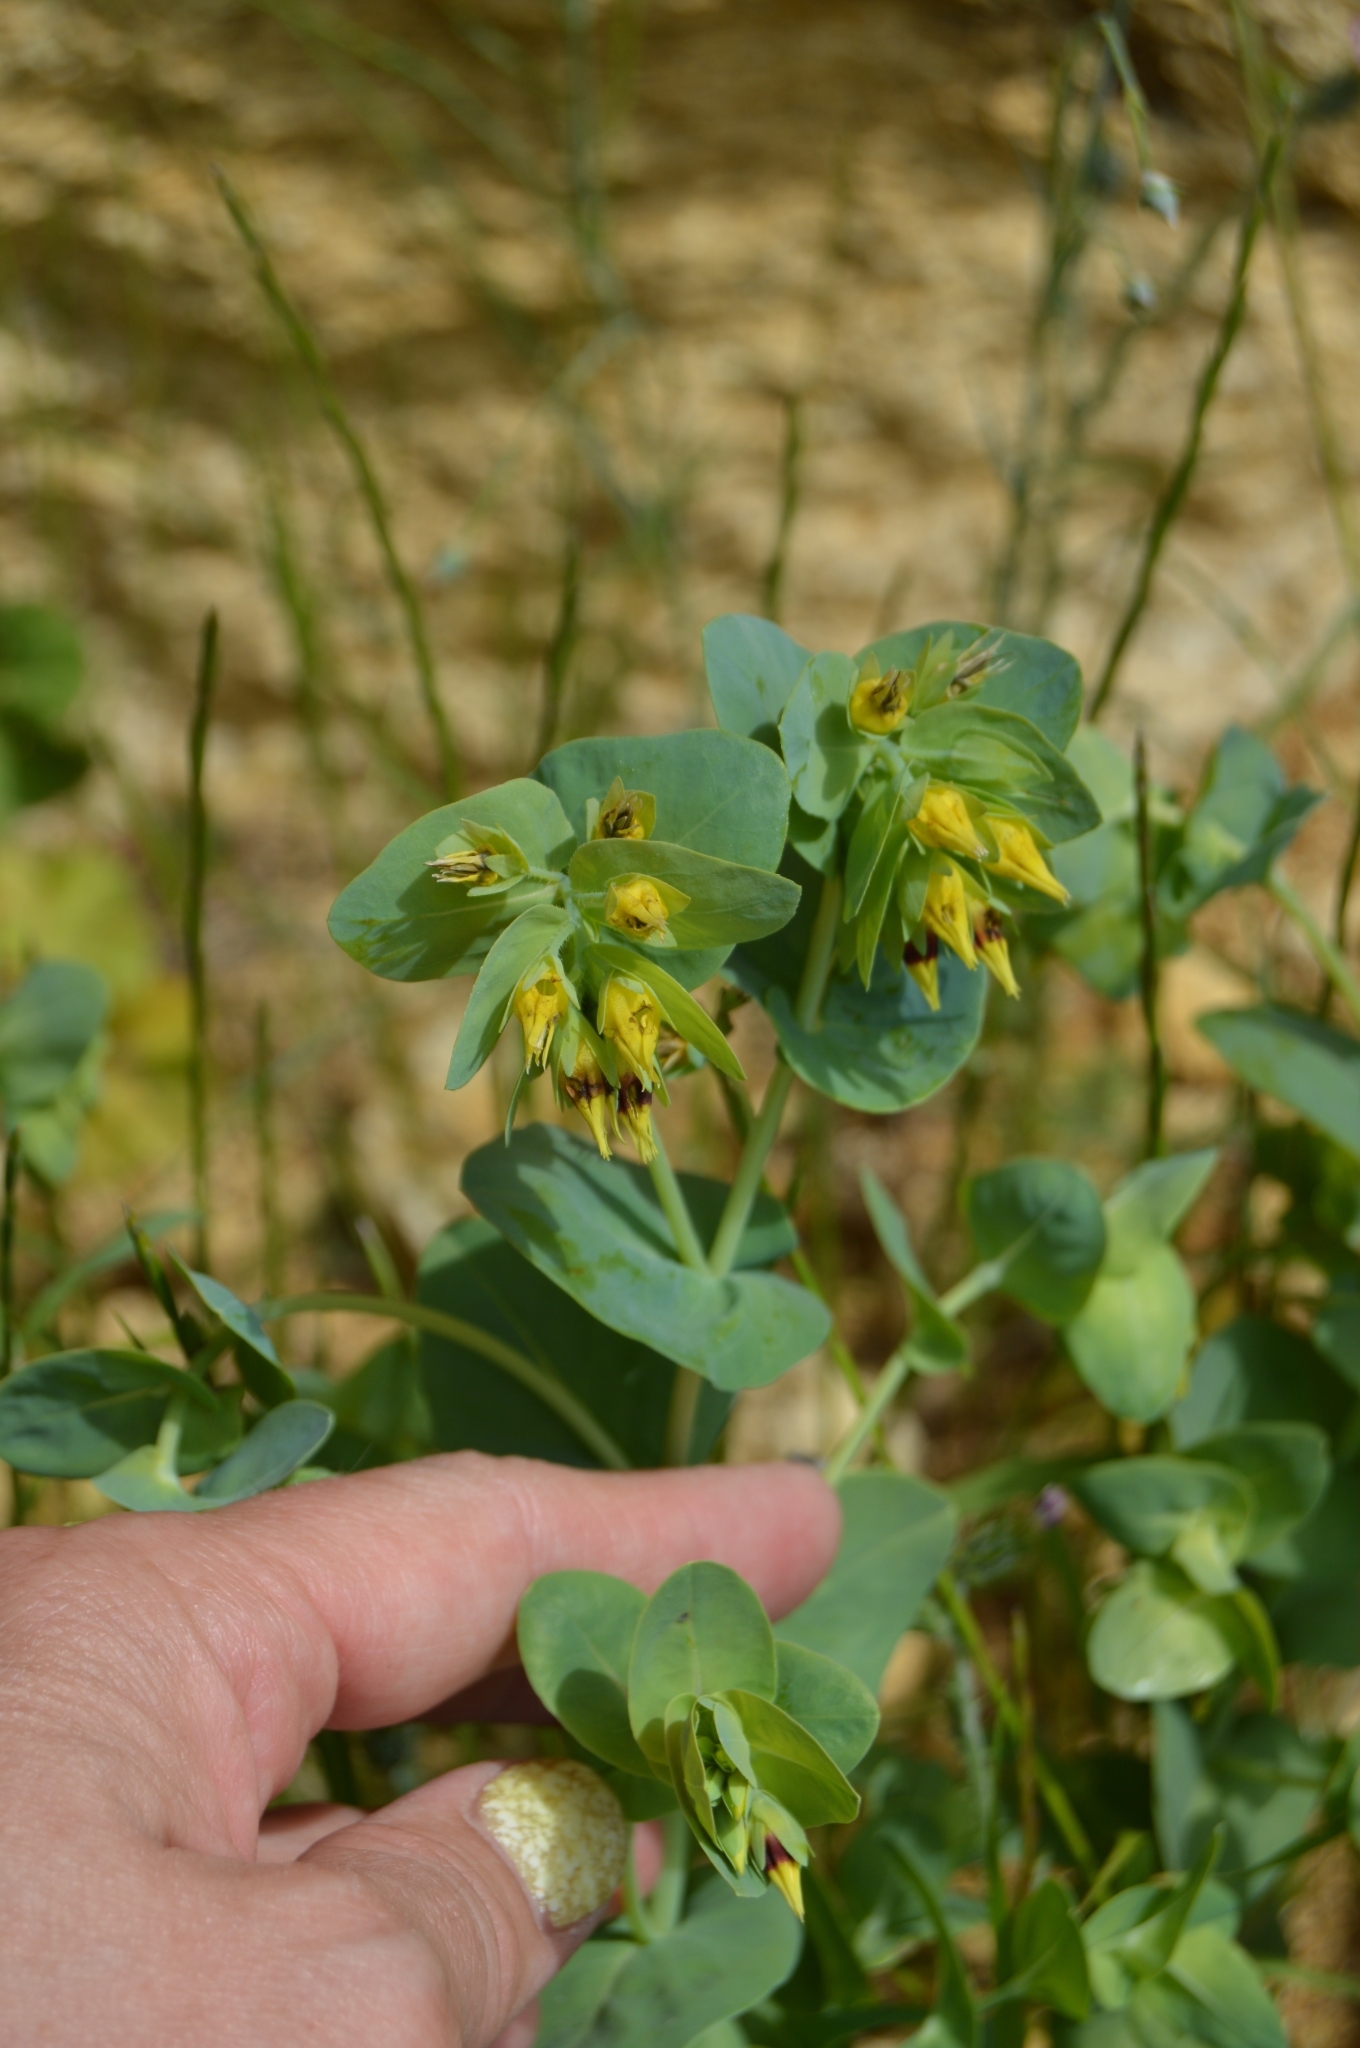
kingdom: Plantae
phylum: Tracheophyta
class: Magnoliopsida
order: Boraginales
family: Boraginaceae
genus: Cerinthe
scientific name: Cerinthe minor
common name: Lesser honeywort
